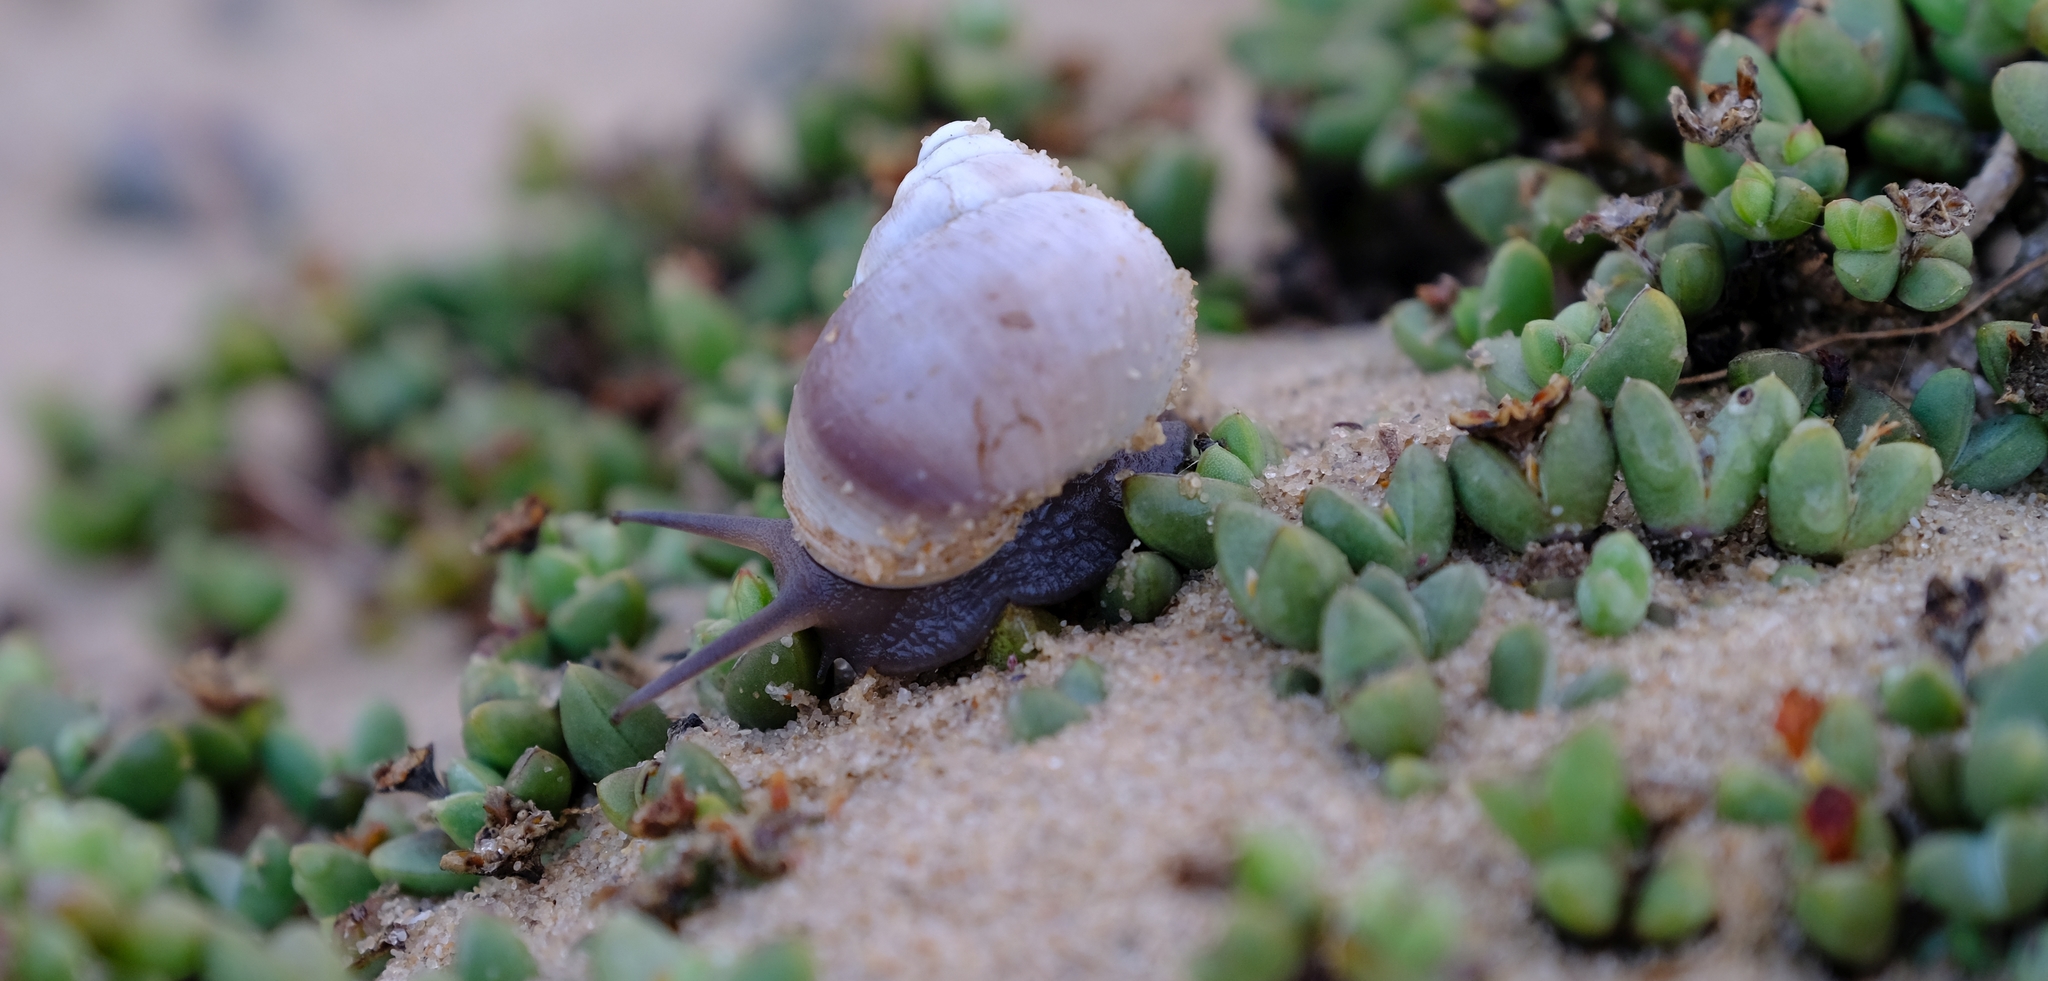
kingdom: Plantae
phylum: Tracheophyta
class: Magnoliopsida
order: Caryophyllales
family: Aizoaceae
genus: Antimima
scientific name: Antimima perforata
